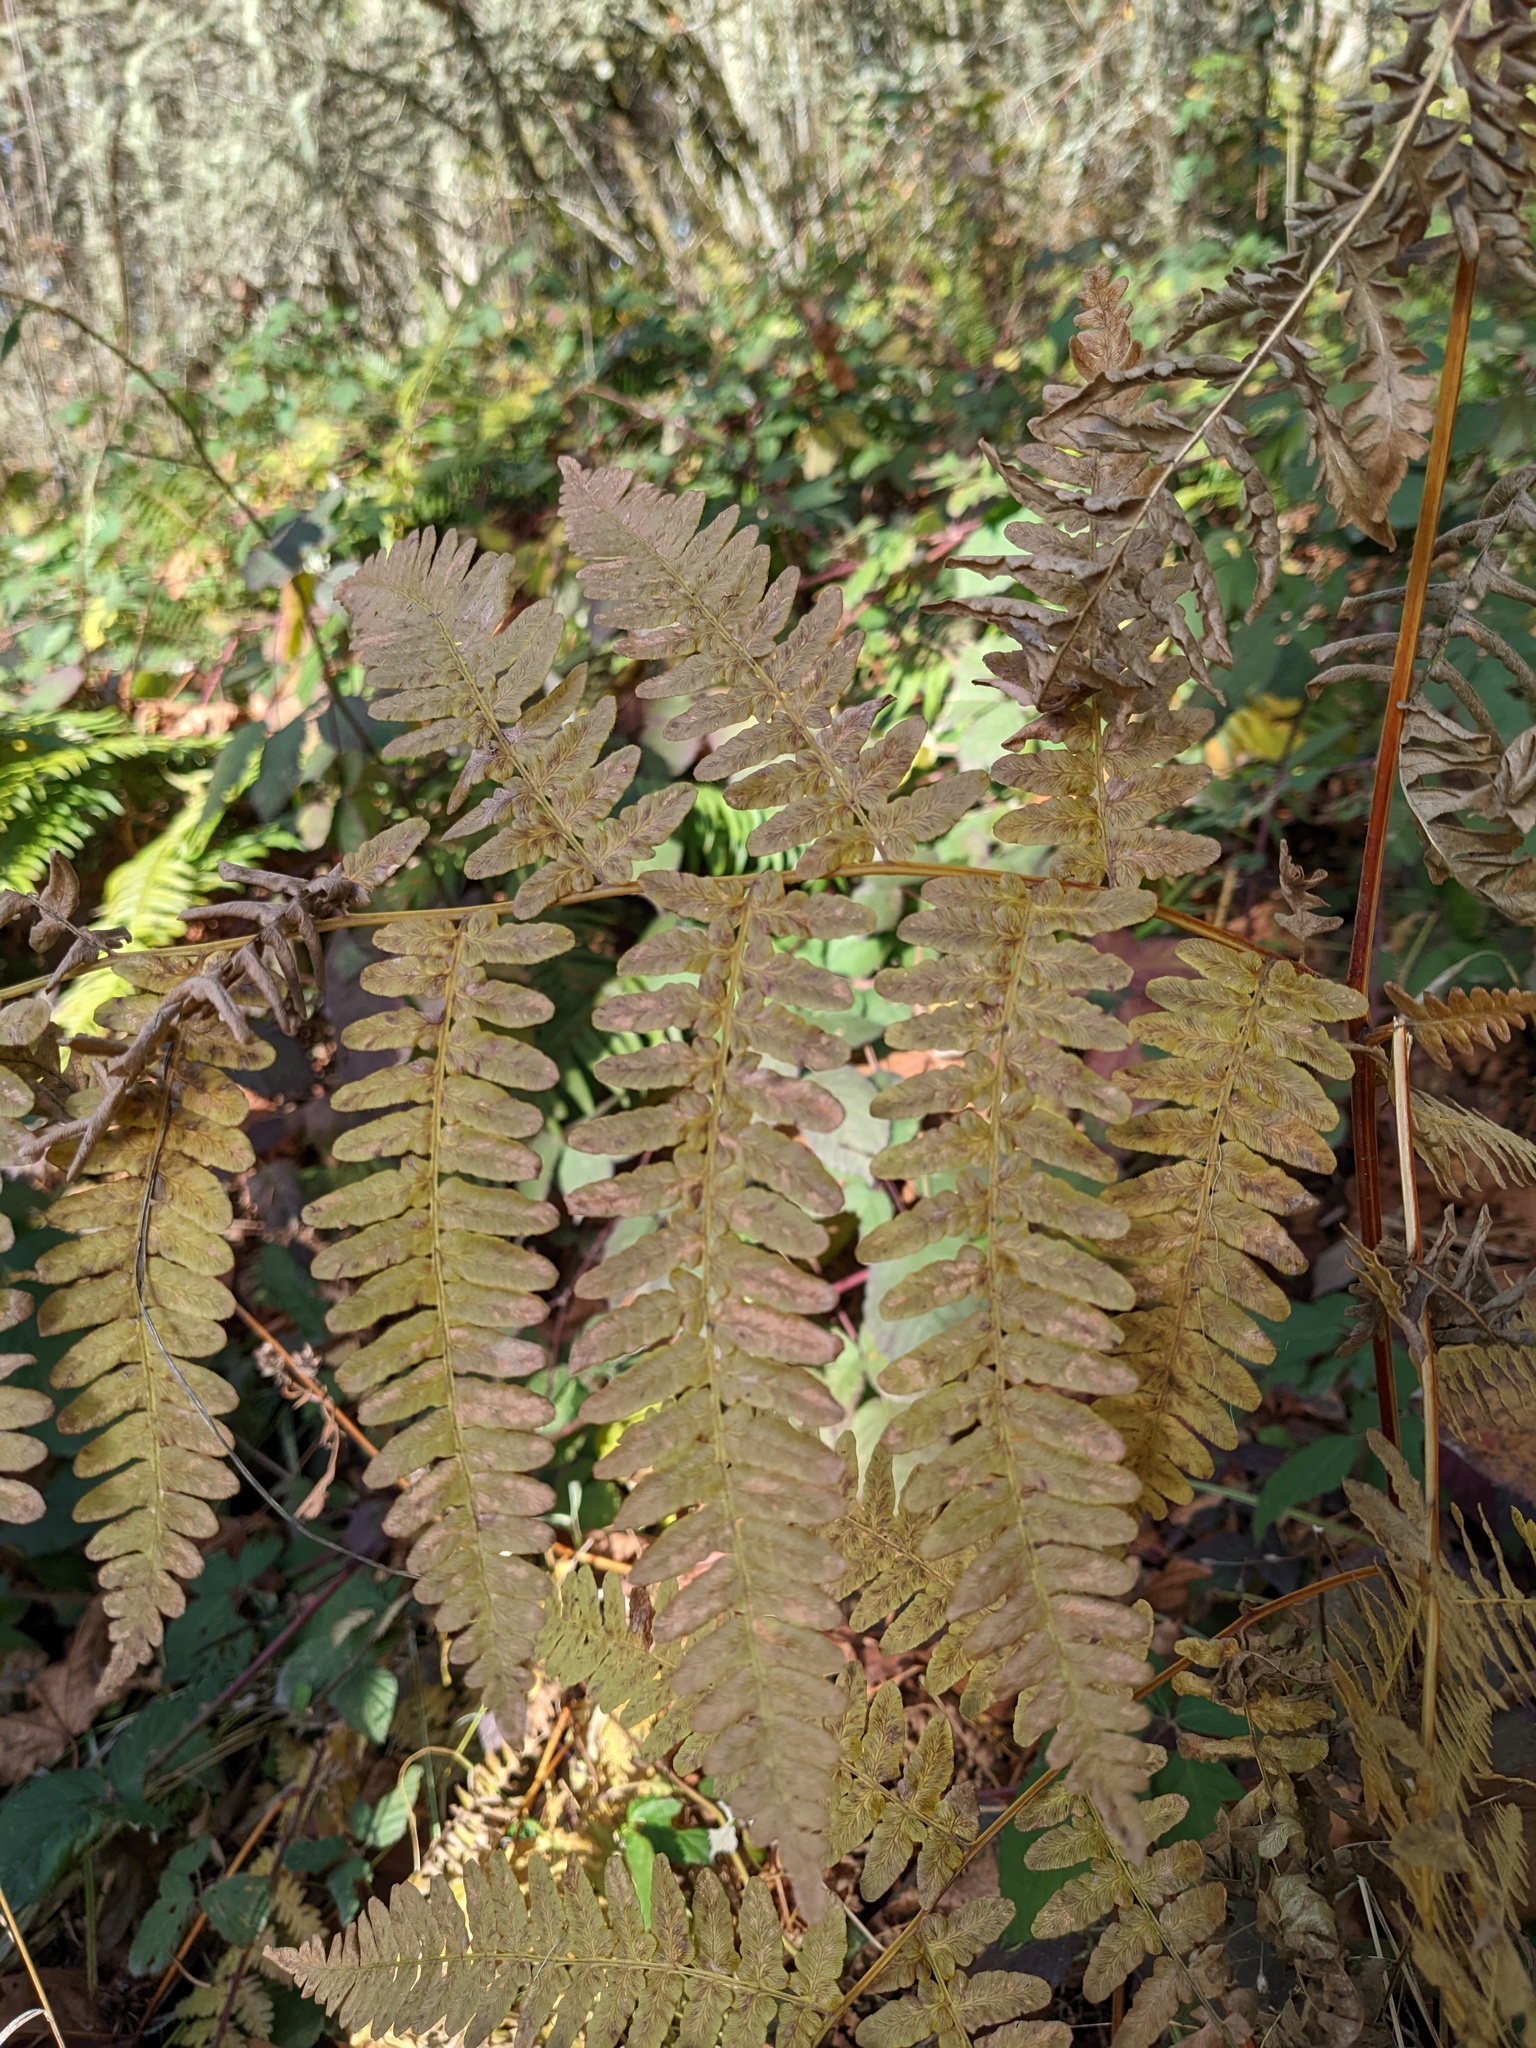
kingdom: Plantae
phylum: Tracheophyta
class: Polypodiopsida
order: Polypodiales
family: Dennstaedtiaceae
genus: Pteridium
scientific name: Pteridium aquilinum
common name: Bracken
